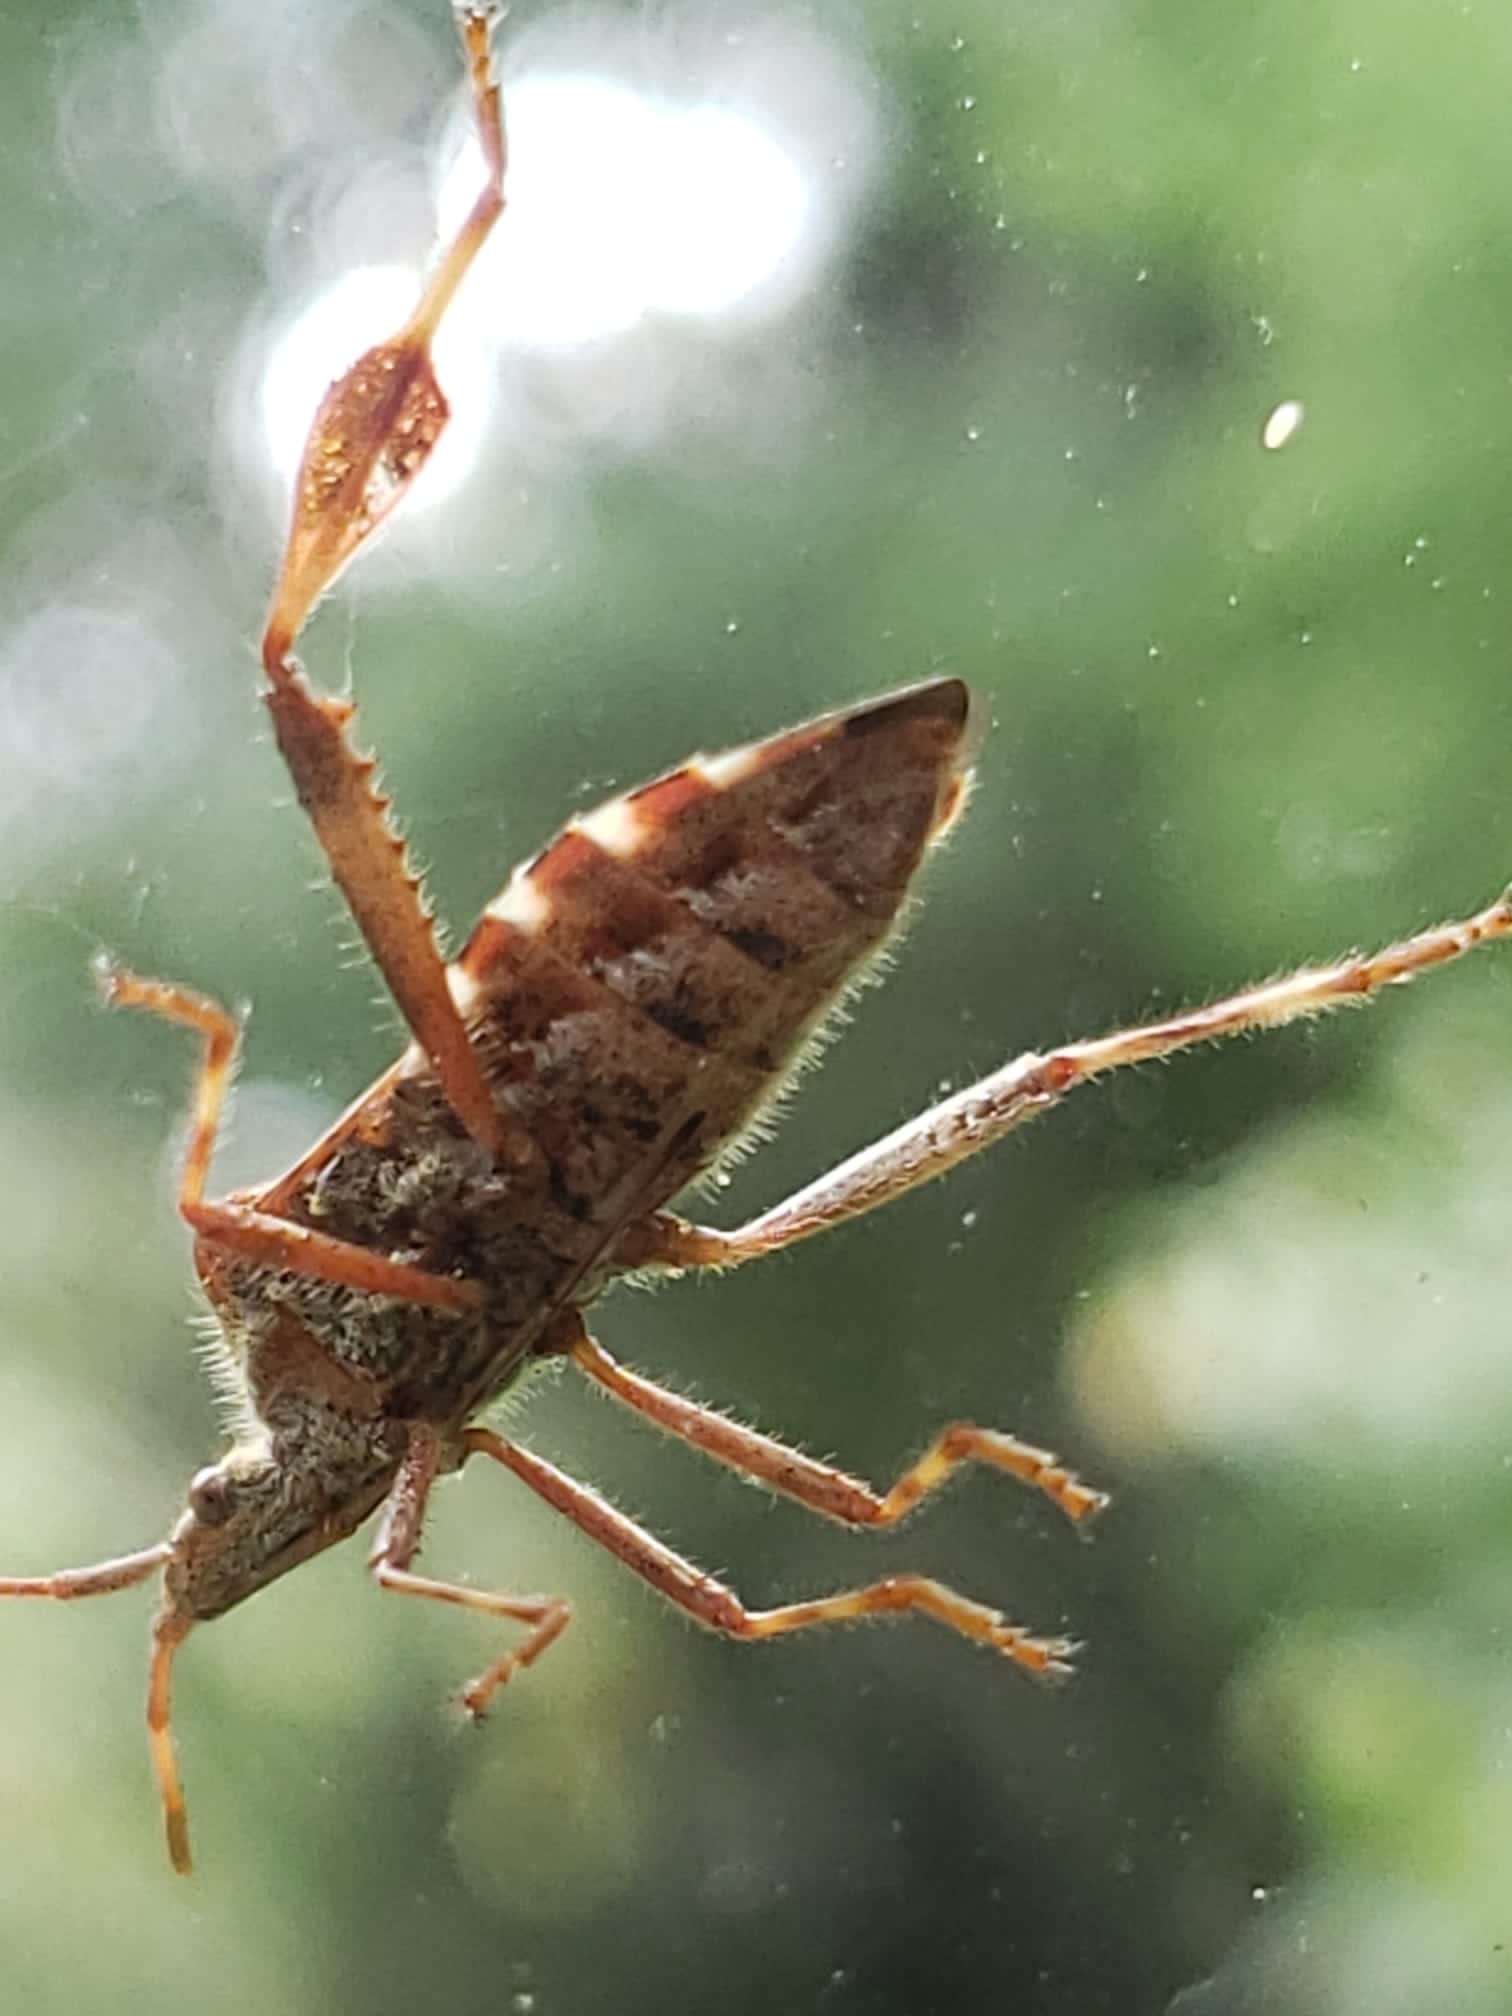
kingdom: Animalia
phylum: Arthropoda
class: Insecta
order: Hemiptera
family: Coreidae
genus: Leptoglossus
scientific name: Leptoglossus occidentalis
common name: Western conifer-seed bug
